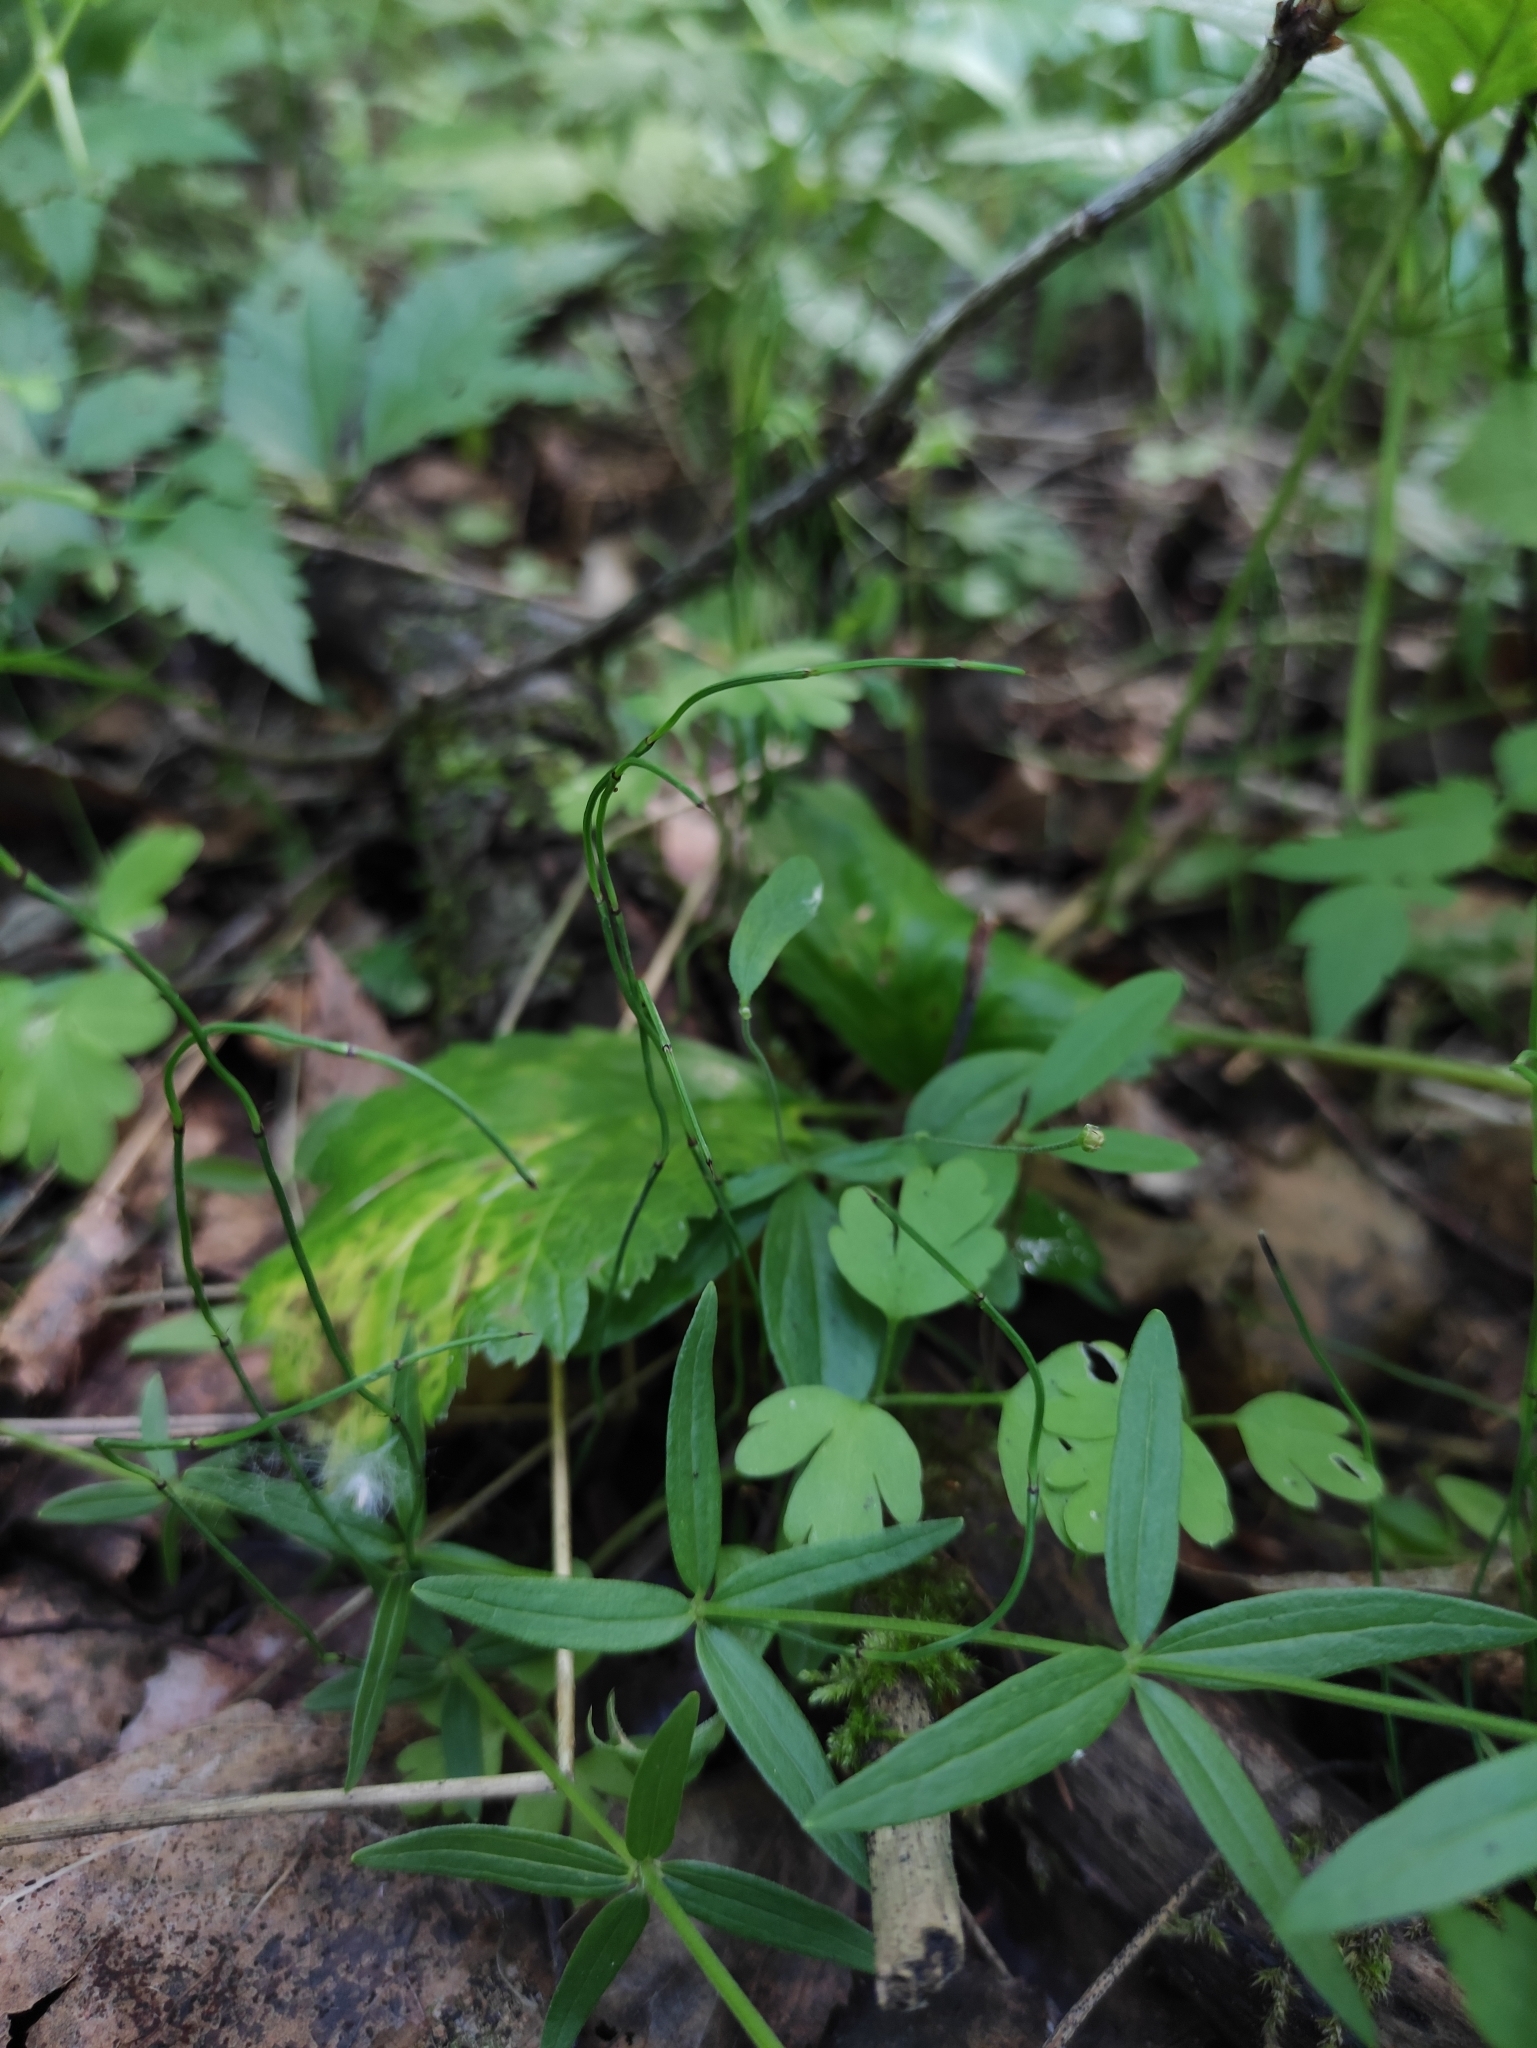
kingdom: Plantae
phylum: Tracheophyta
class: Polypodiopsida
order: Equisetales
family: Equisetaceae
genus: Equisetum
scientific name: Equisetum scirpoides
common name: Delicate horsetail
